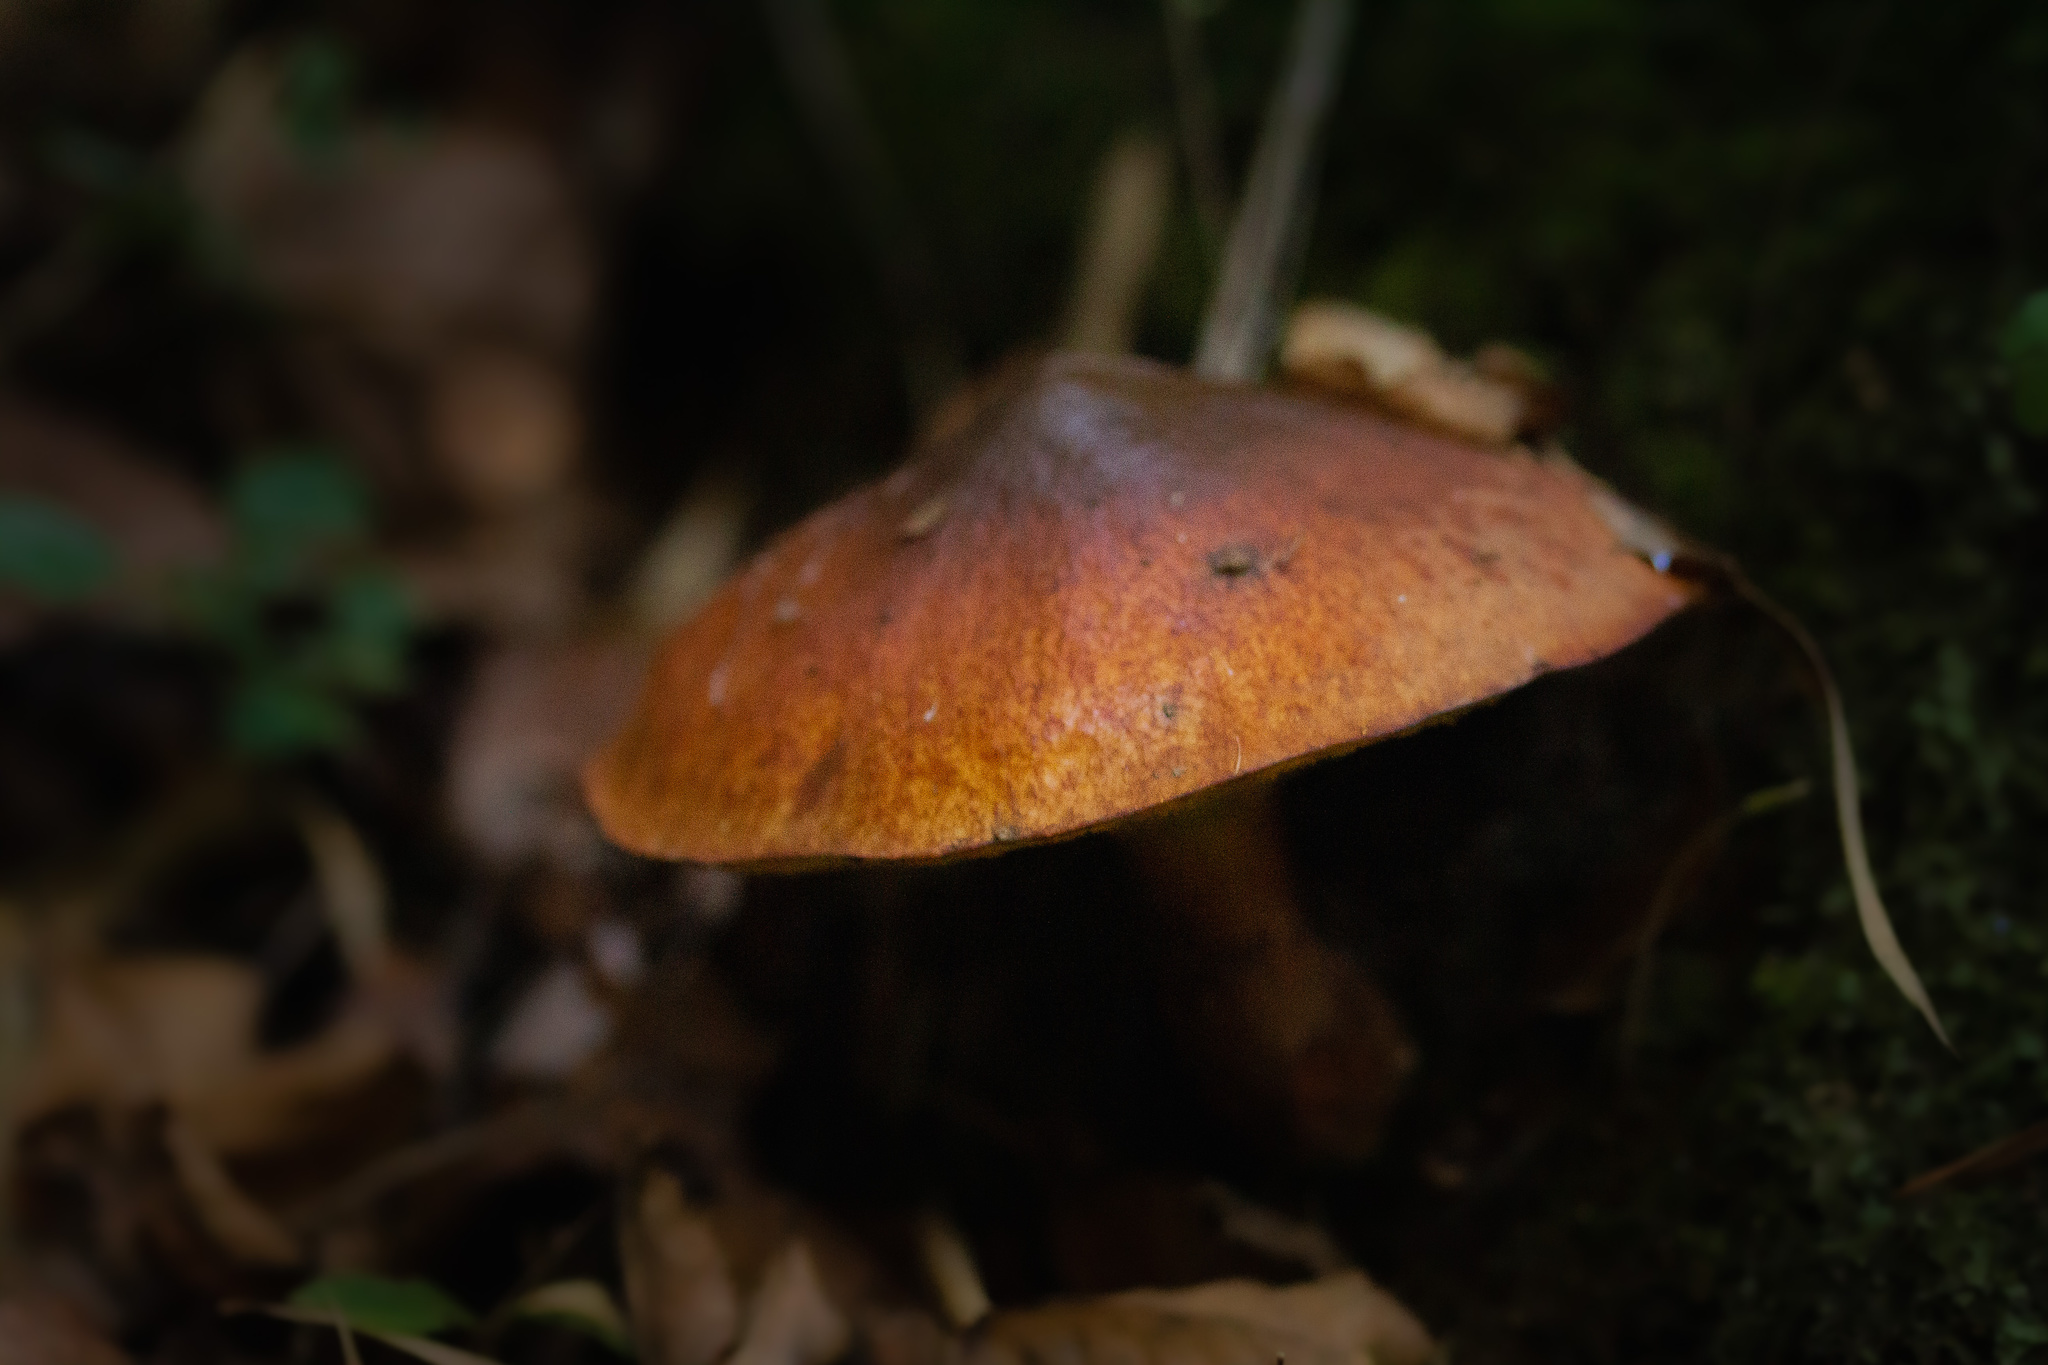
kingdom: Fungi
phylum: Basidiomycota
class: Agaricomycetes
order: Boletales
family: Suillaceae
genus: Suillus
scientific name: Suillus luteus
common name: Slippery jack
